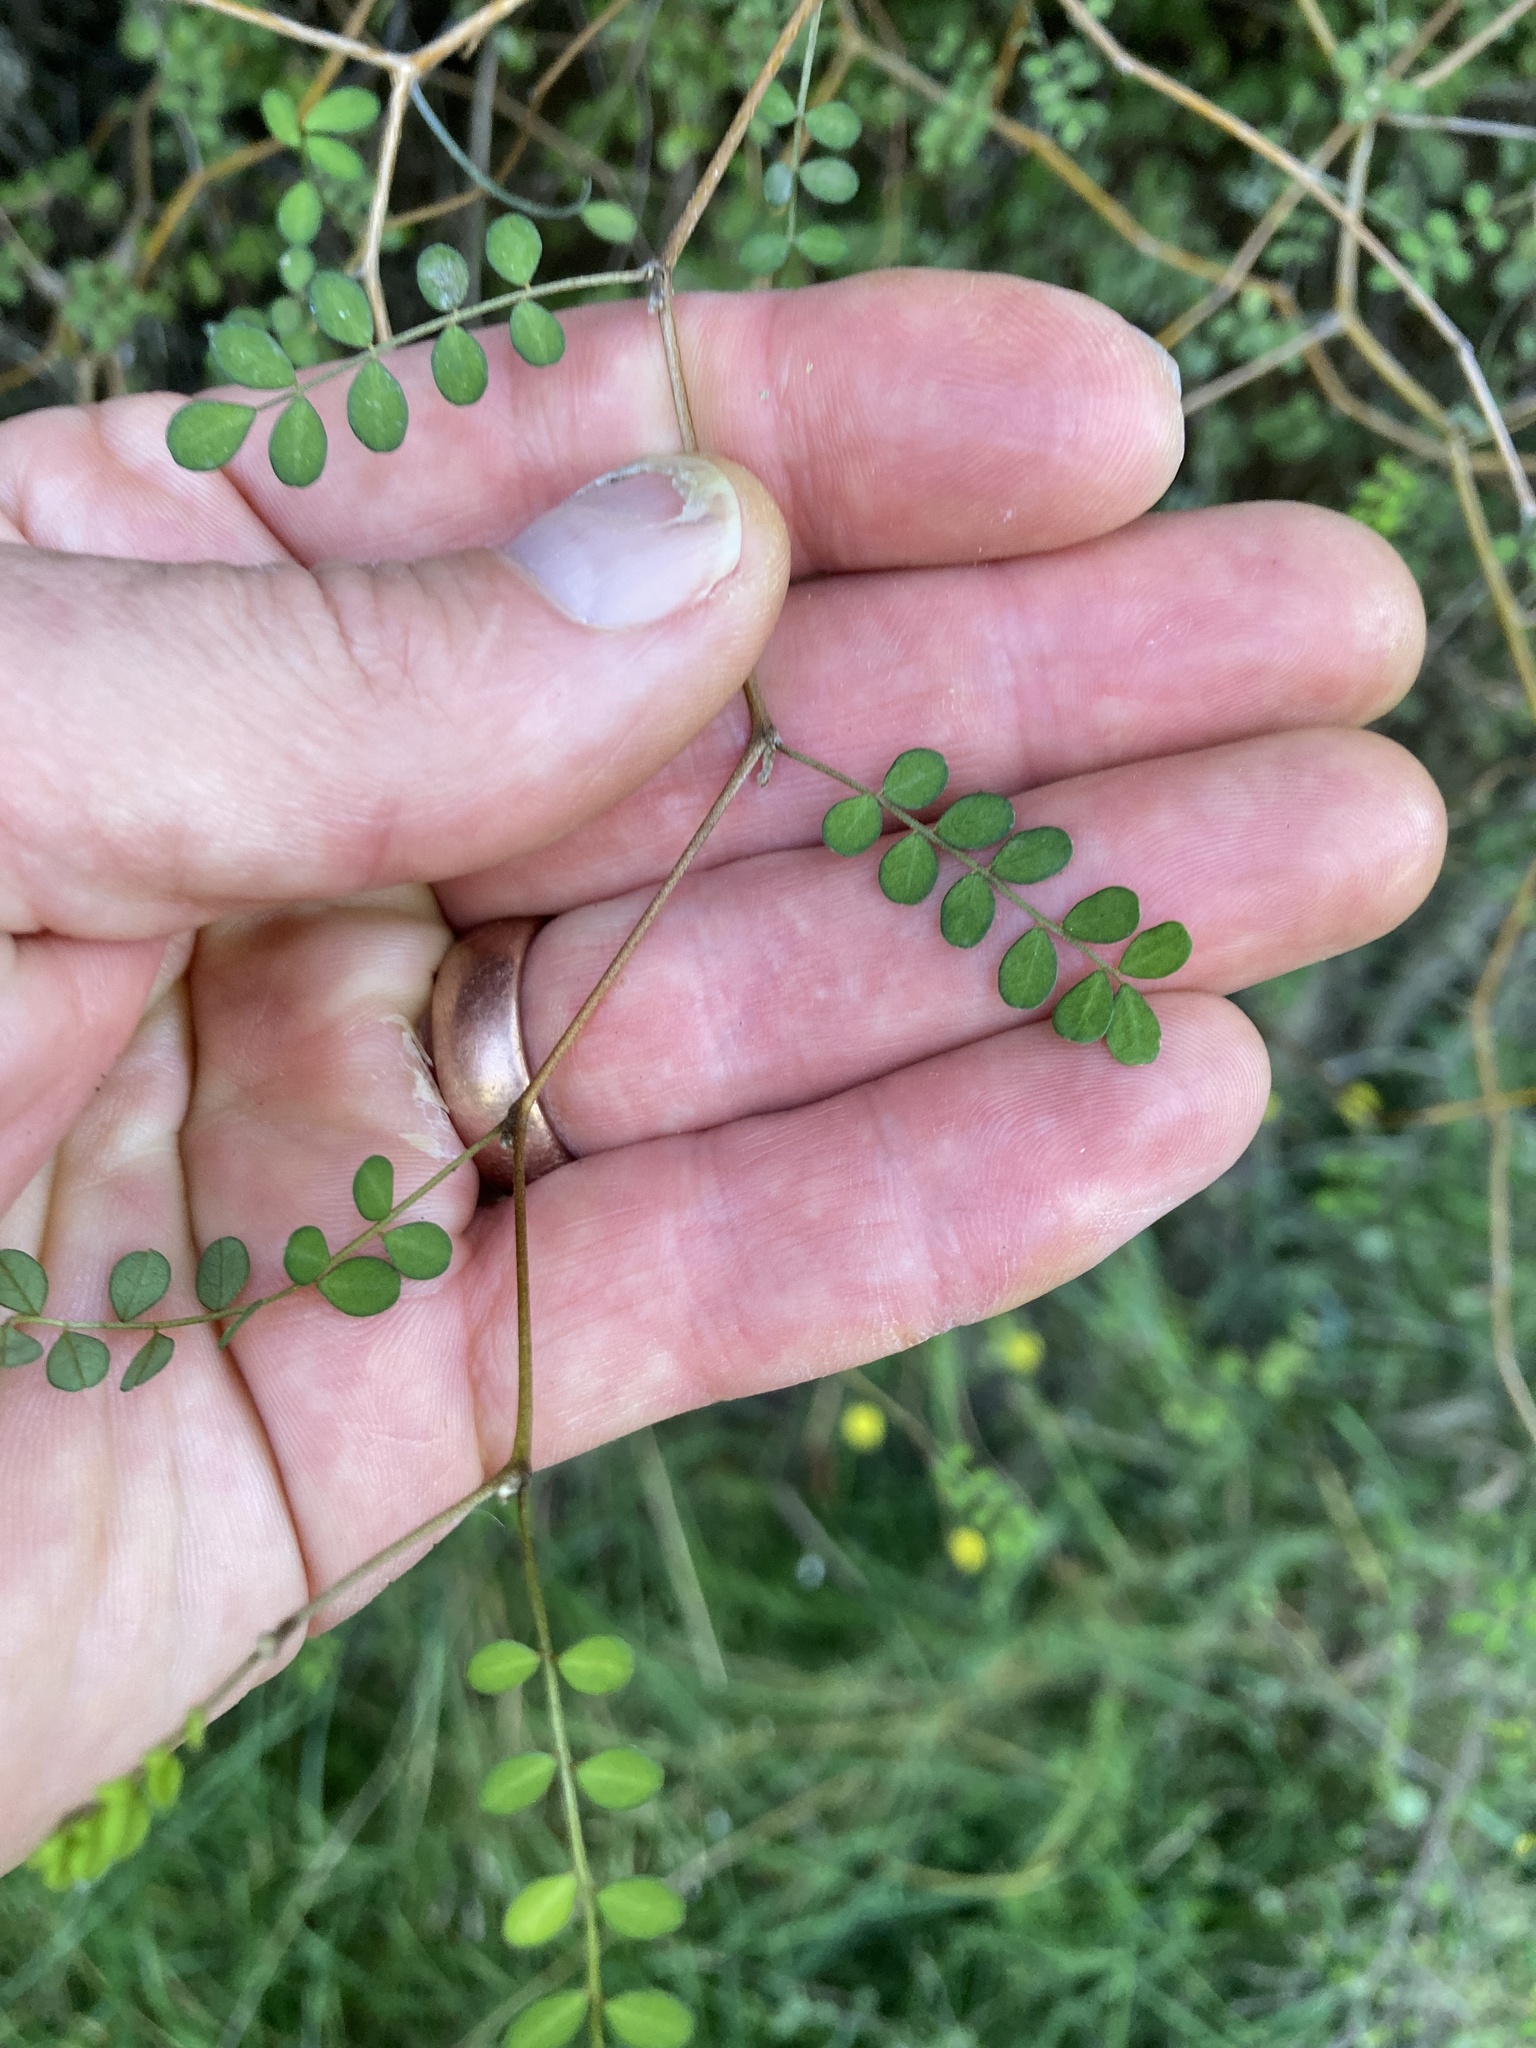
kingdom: Plantae
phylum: Tracheophyta
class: Magnoliopsida
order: Fabales
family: Fabaceae
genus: Sophora
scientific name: Sophora microphylla
